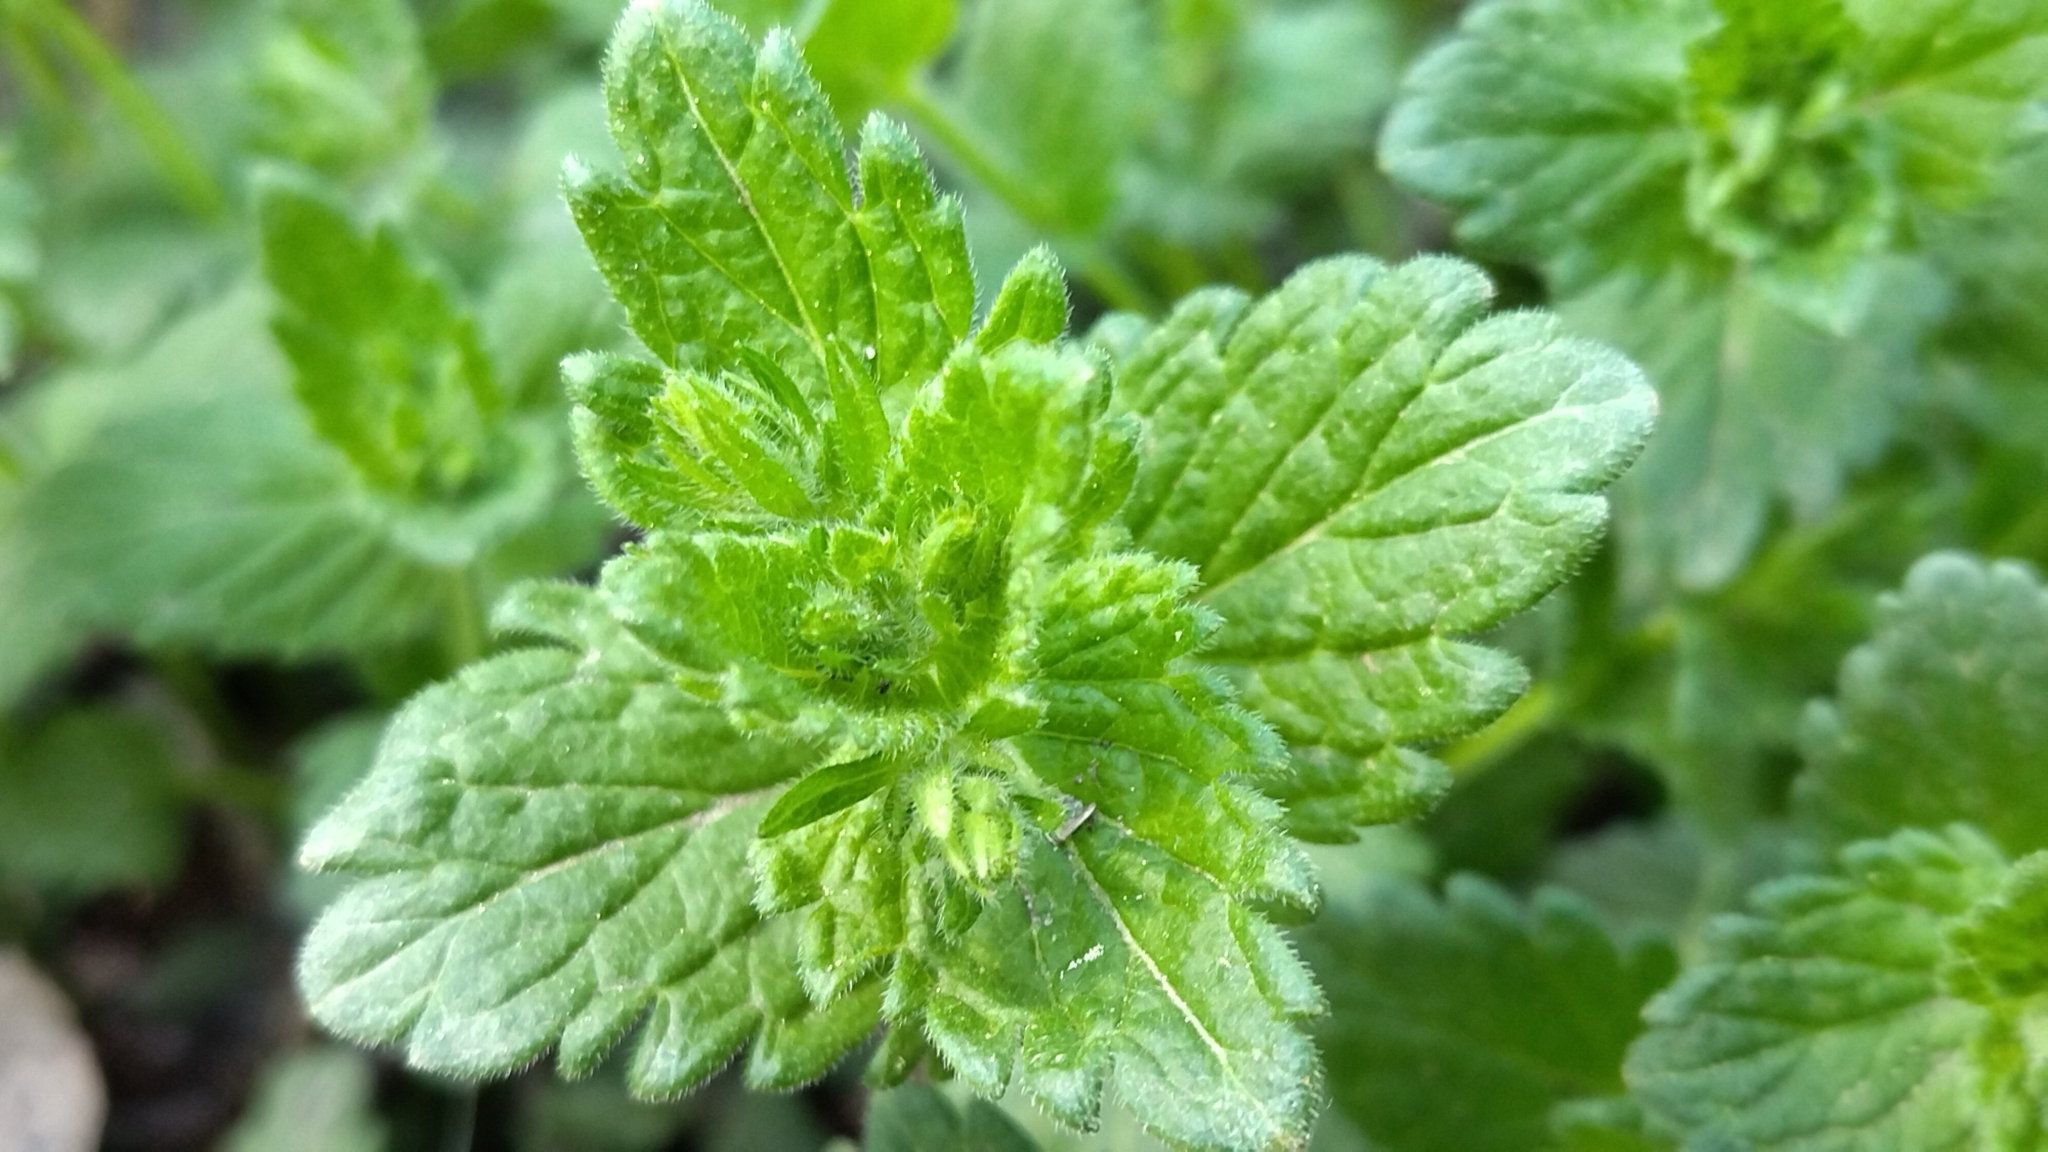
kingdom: Plantae
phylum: Tracheophyta
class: Magnoliopsida
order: Lamiales
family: Plantaginaceae
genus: Veronica
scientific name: Veronica chamaedrys
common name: Germander speedwell
